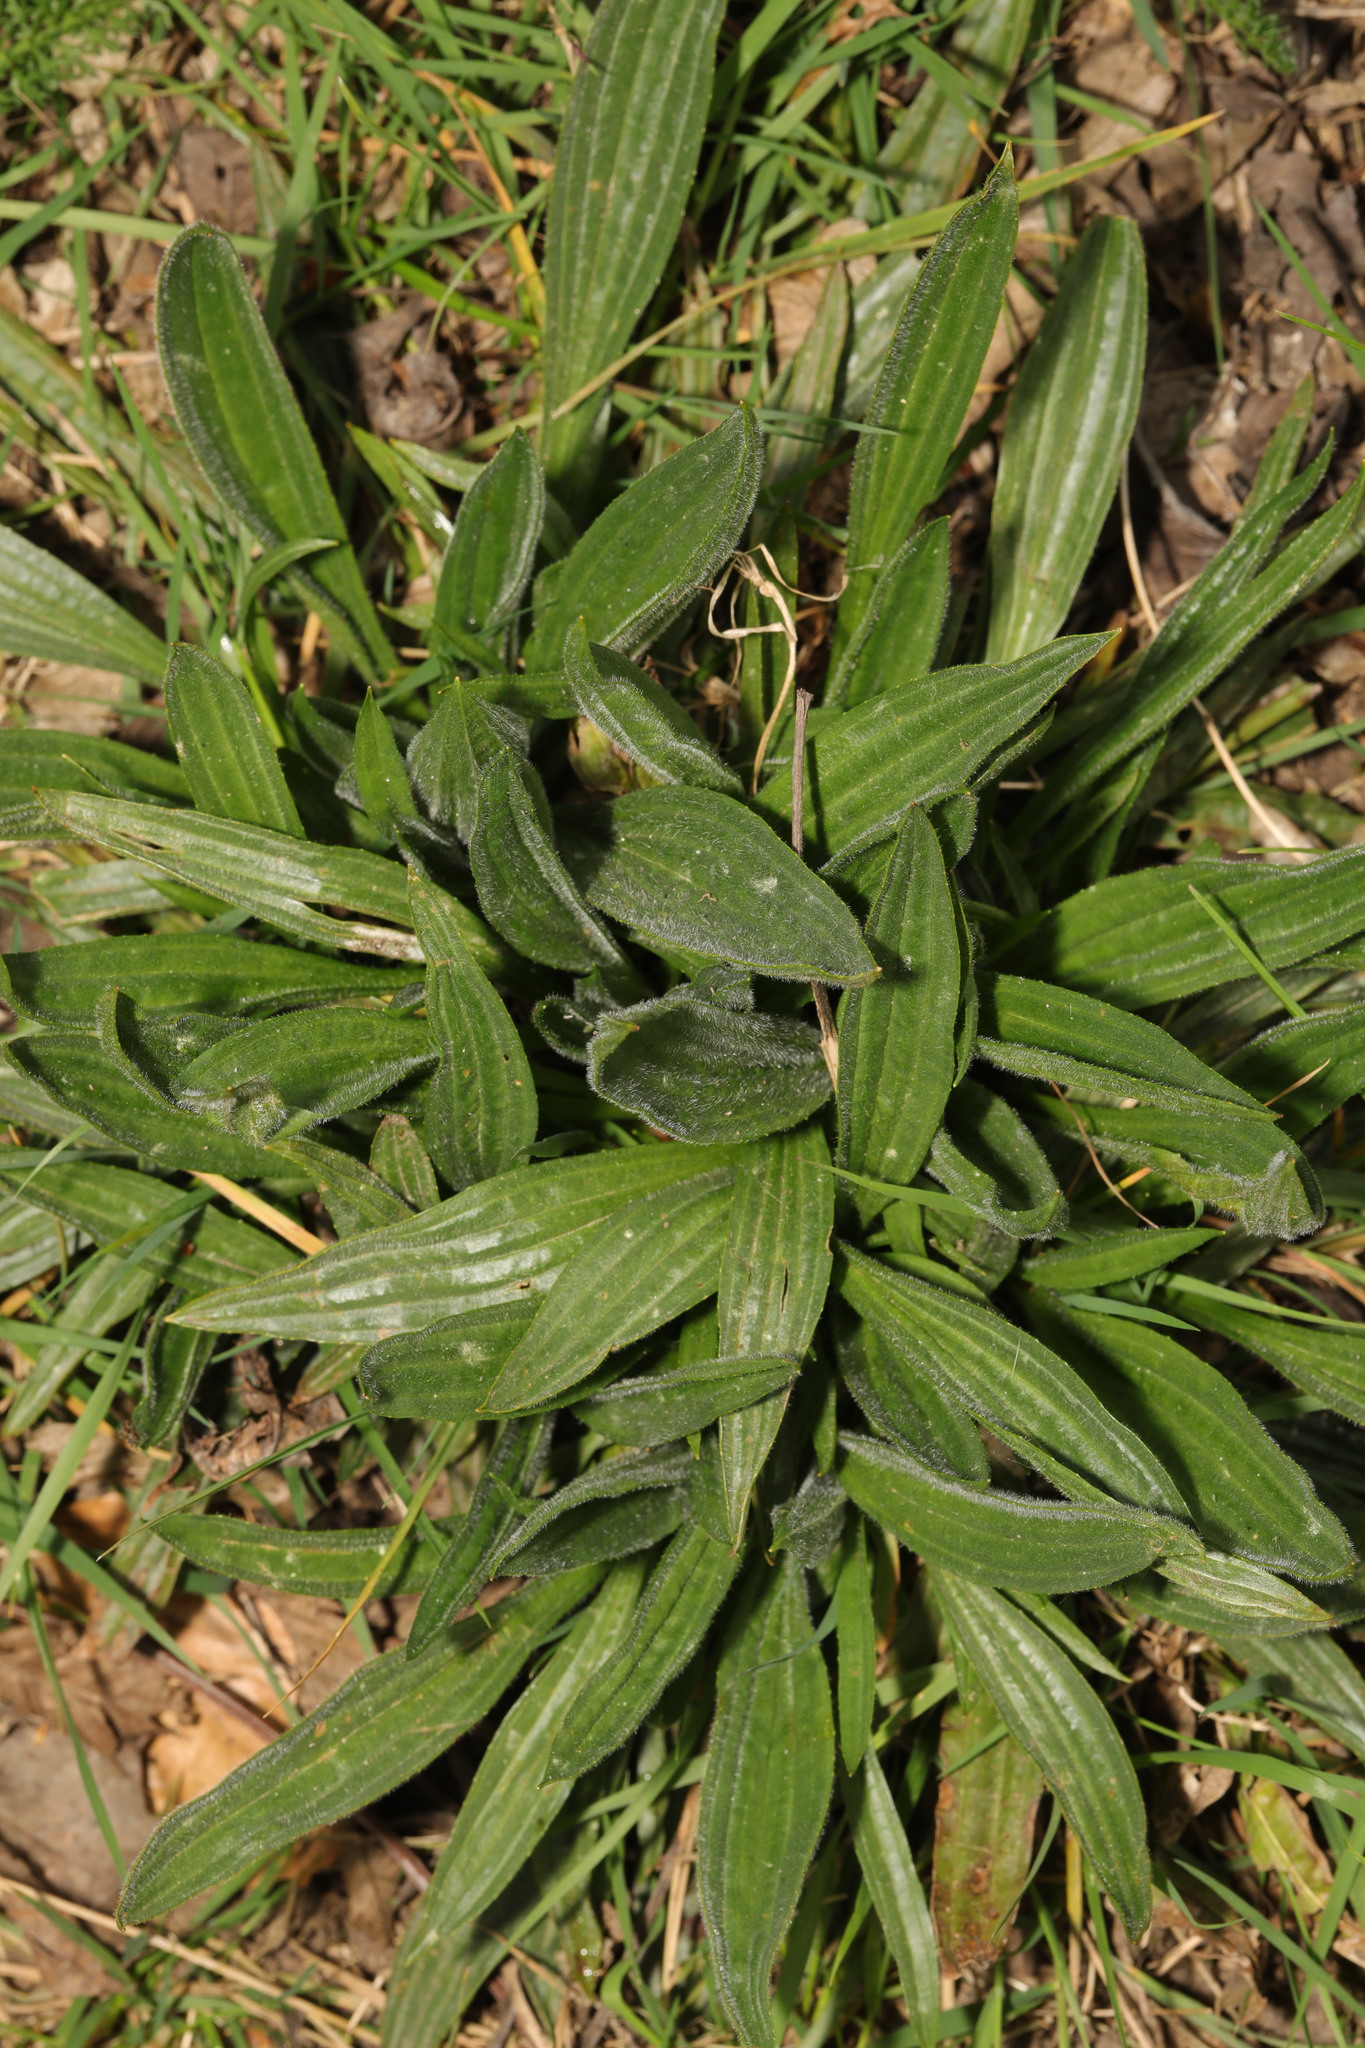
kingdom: Plantae
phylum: Tracheophyta
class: Magnoliopsida
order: Lamiales
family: Plantaginaceae
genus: Plantago
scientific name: Plantago lanceolata
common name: Ribwort plantain
